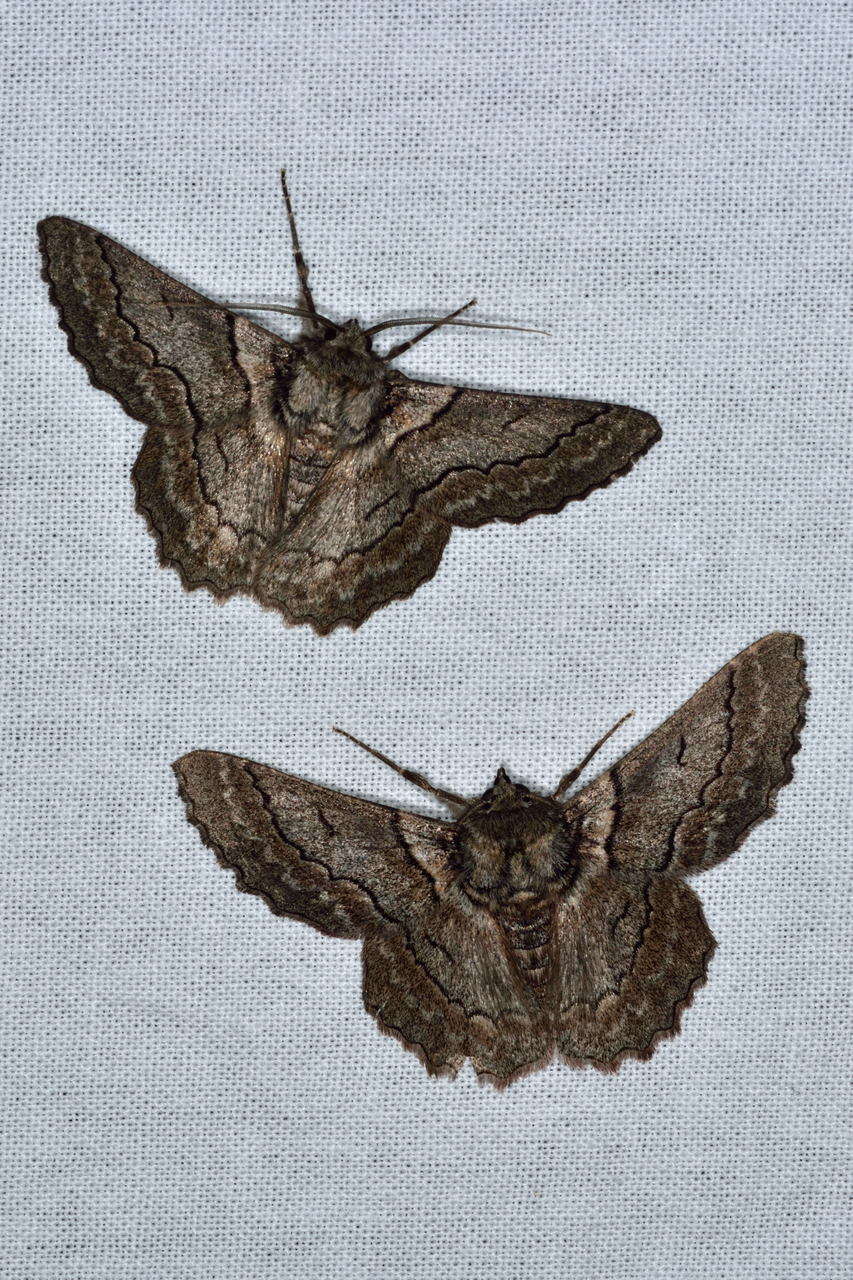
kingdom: Animalia
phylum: Arthropoda
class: Insecta
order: Lepidoptera
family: Geometridae
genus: Hypobapta
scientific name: Hypobapta tachyhalotaria
